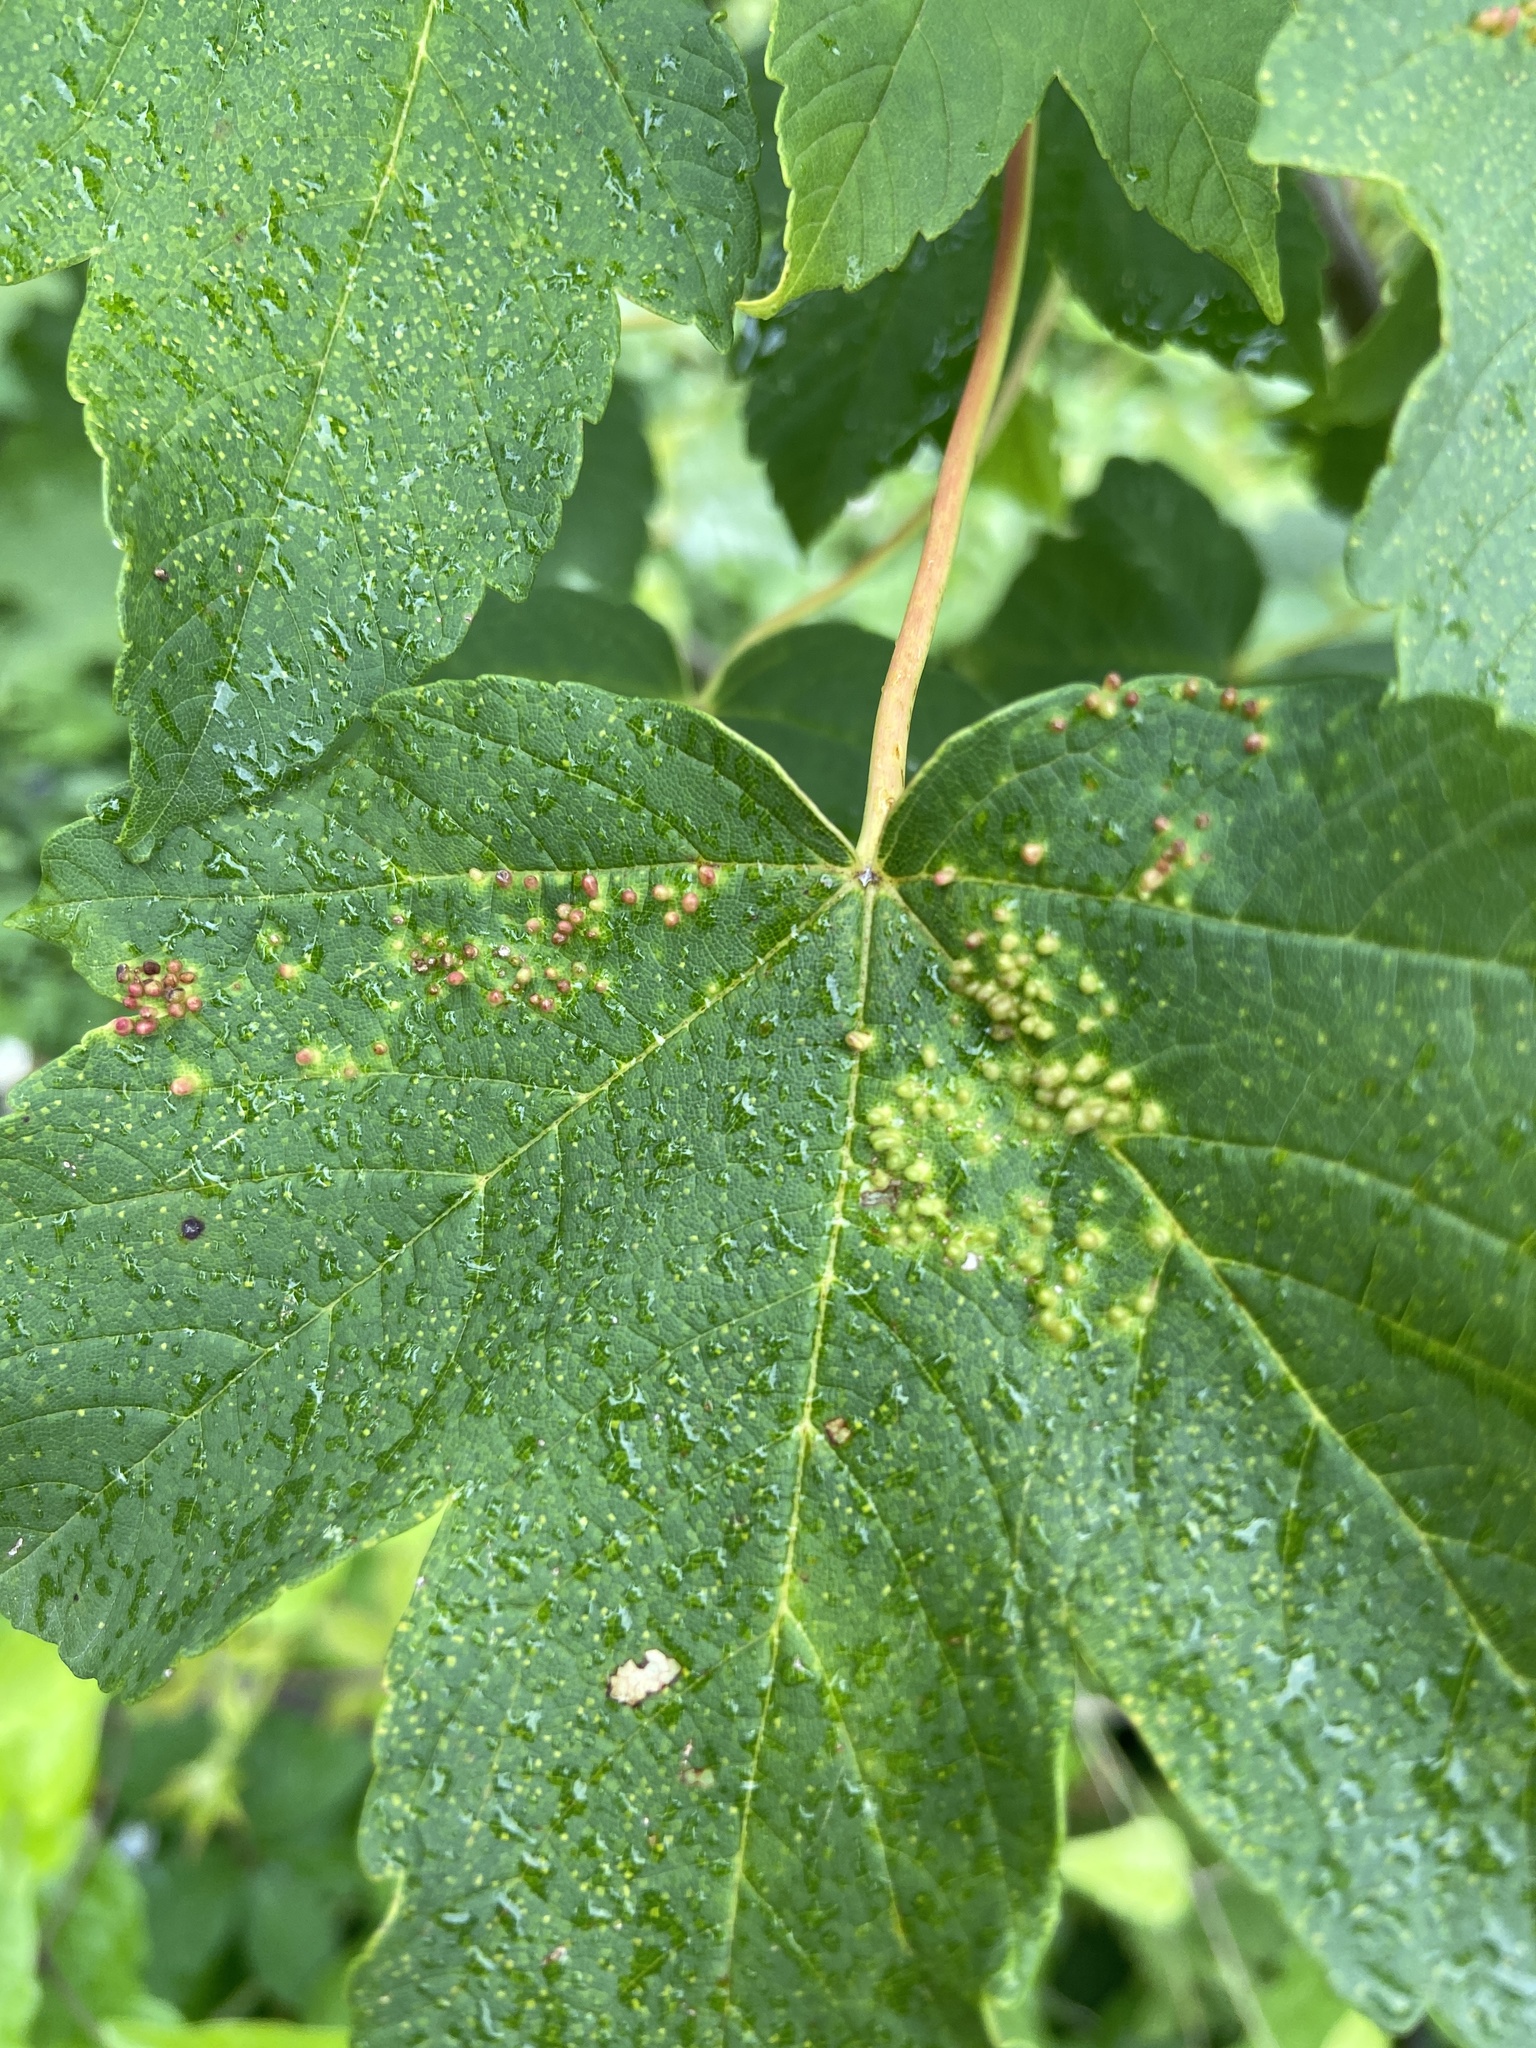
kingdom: Animalia
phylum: Arthropoda
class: Arachnida
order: Trombidiformes
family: Eriophyidae
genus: Aceria
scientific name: Aceria cephaloneus
